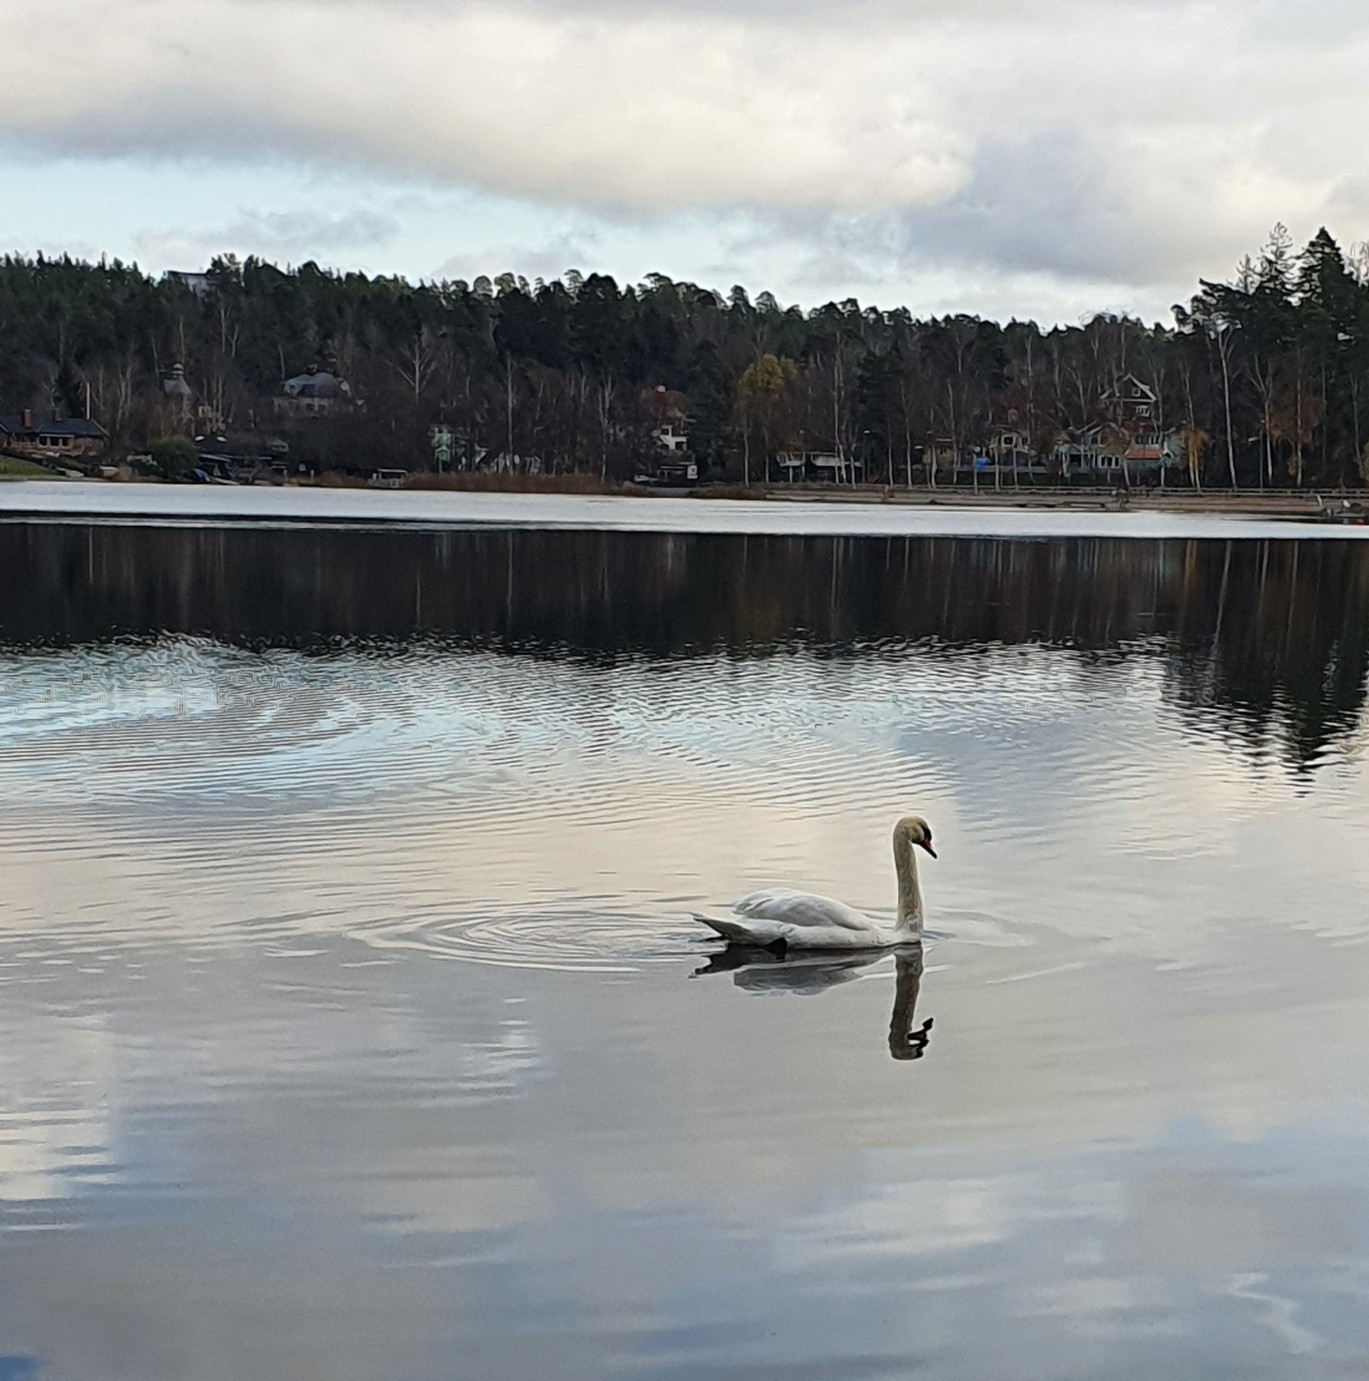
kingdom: Animalia
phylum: Chordata
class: Aves
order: Anseriformes
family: Anatidae
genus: Cygnus
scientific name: Cygnus olor
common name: Mute swan
